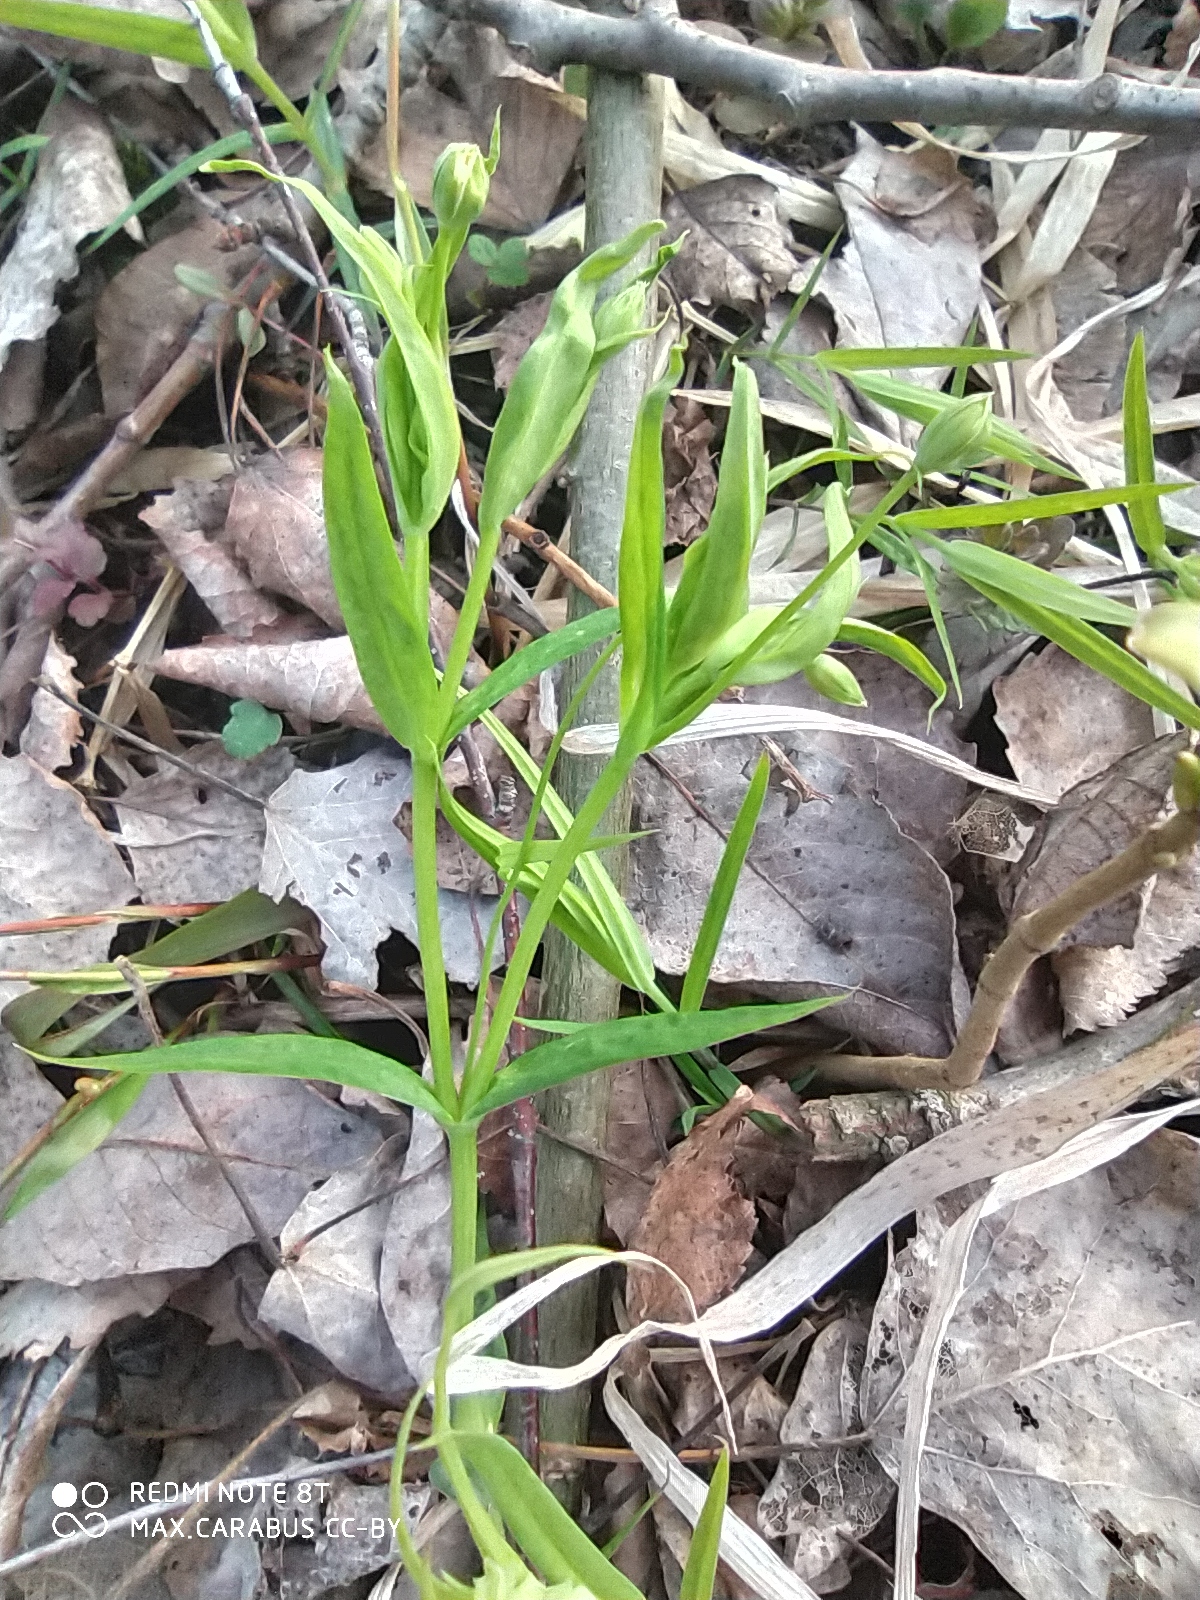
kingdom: Plantae
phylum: Tracheophyta
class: Magnoliopsida
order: Caryophyllales
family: Caryophyllaceae
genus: Rabelera
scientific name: Rabelera holostea
